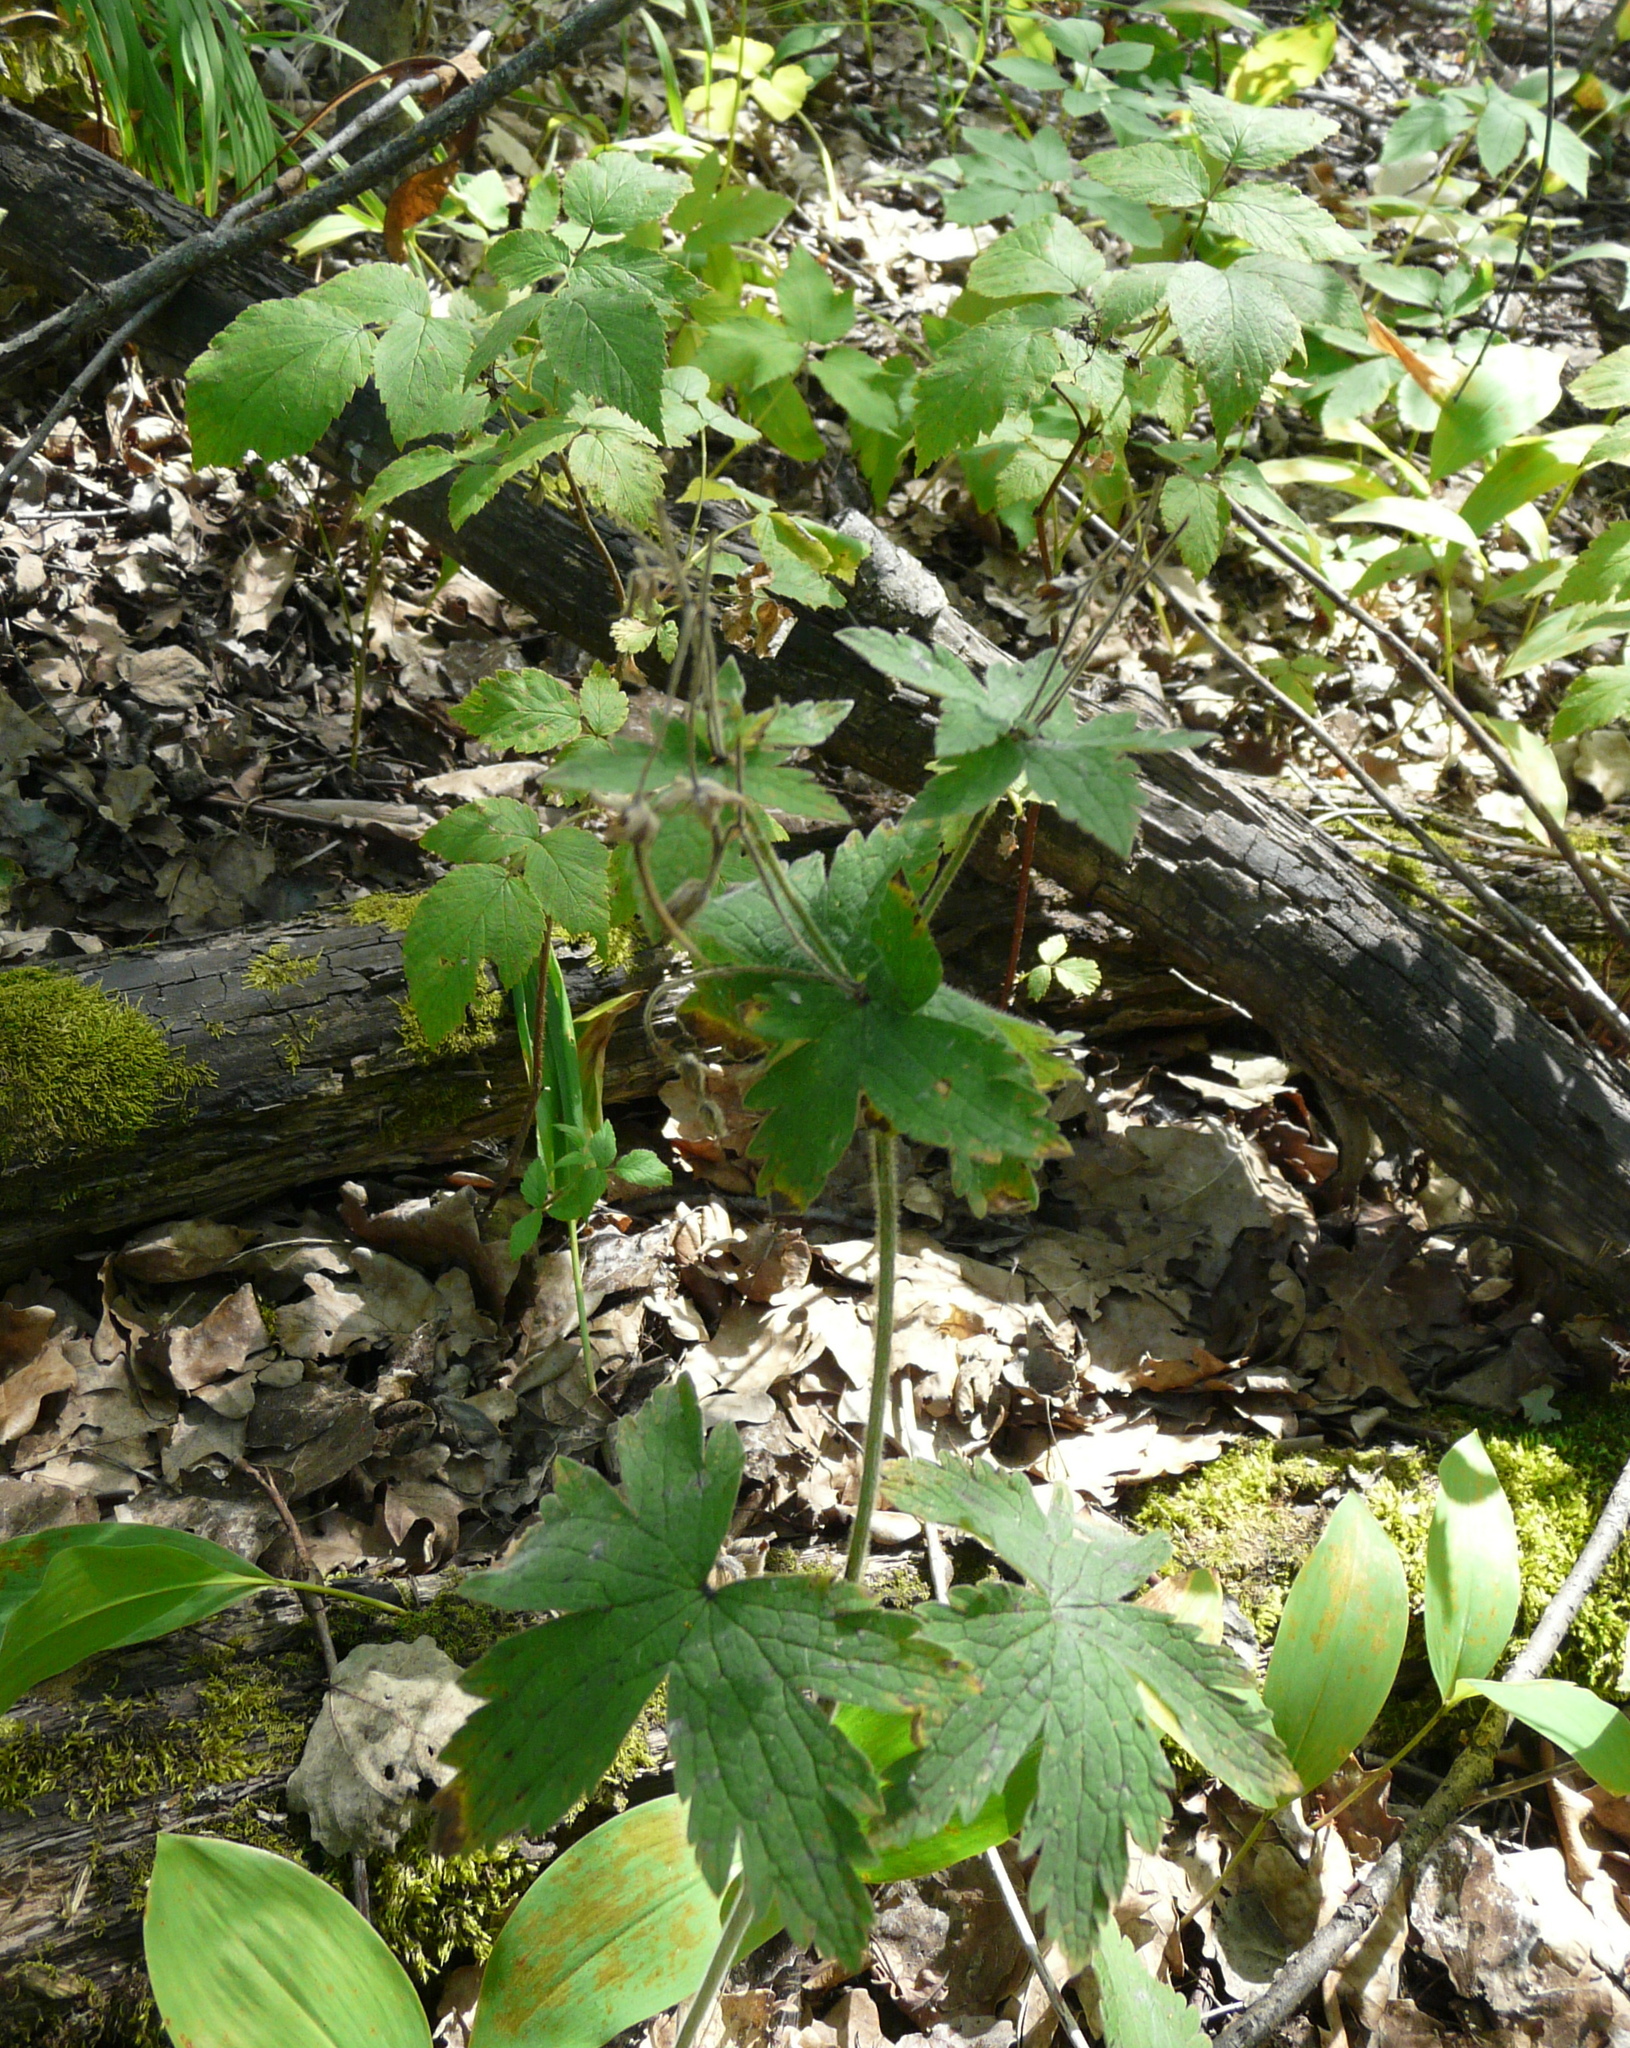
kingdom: Plantae
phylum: Tracheophyta
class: Magnoliopsida
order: Geraniales
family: Geraniaceae
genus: Geranium
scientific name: Geranium sylvaticum
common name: Wood crane's-bill
